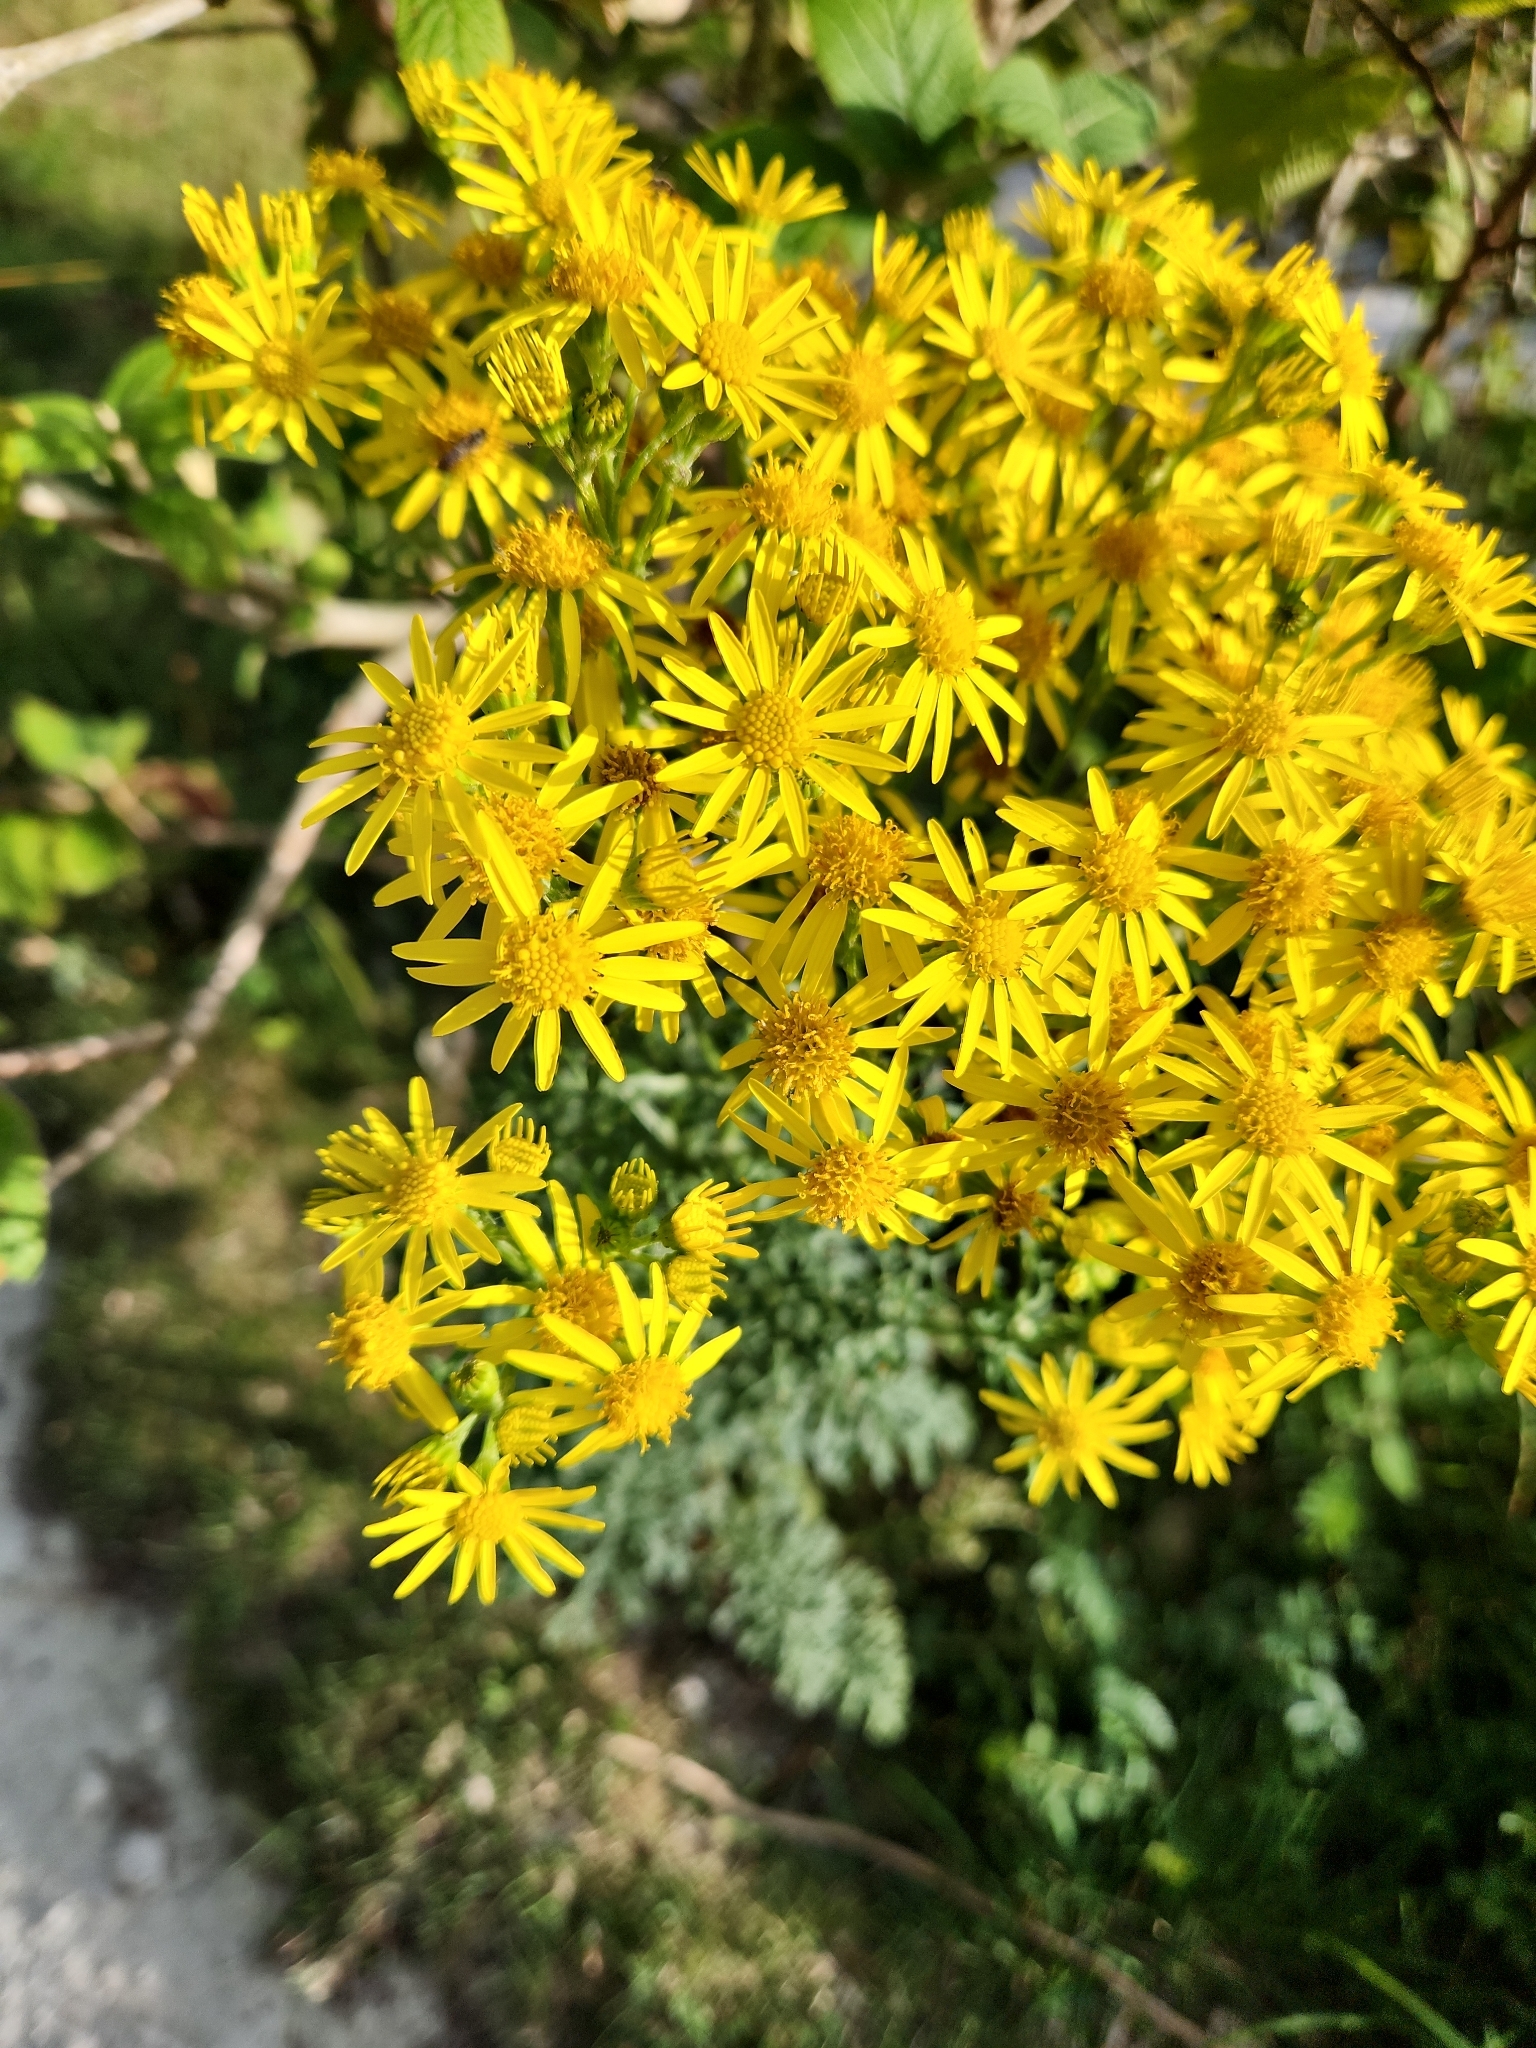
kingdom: Plantae
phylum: Tracheophyta
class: Magnoliopsida
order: Asterales
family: Asteraceae
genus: Jacobaea
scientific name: Jacobaea vulgaris
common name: Stinking willie
